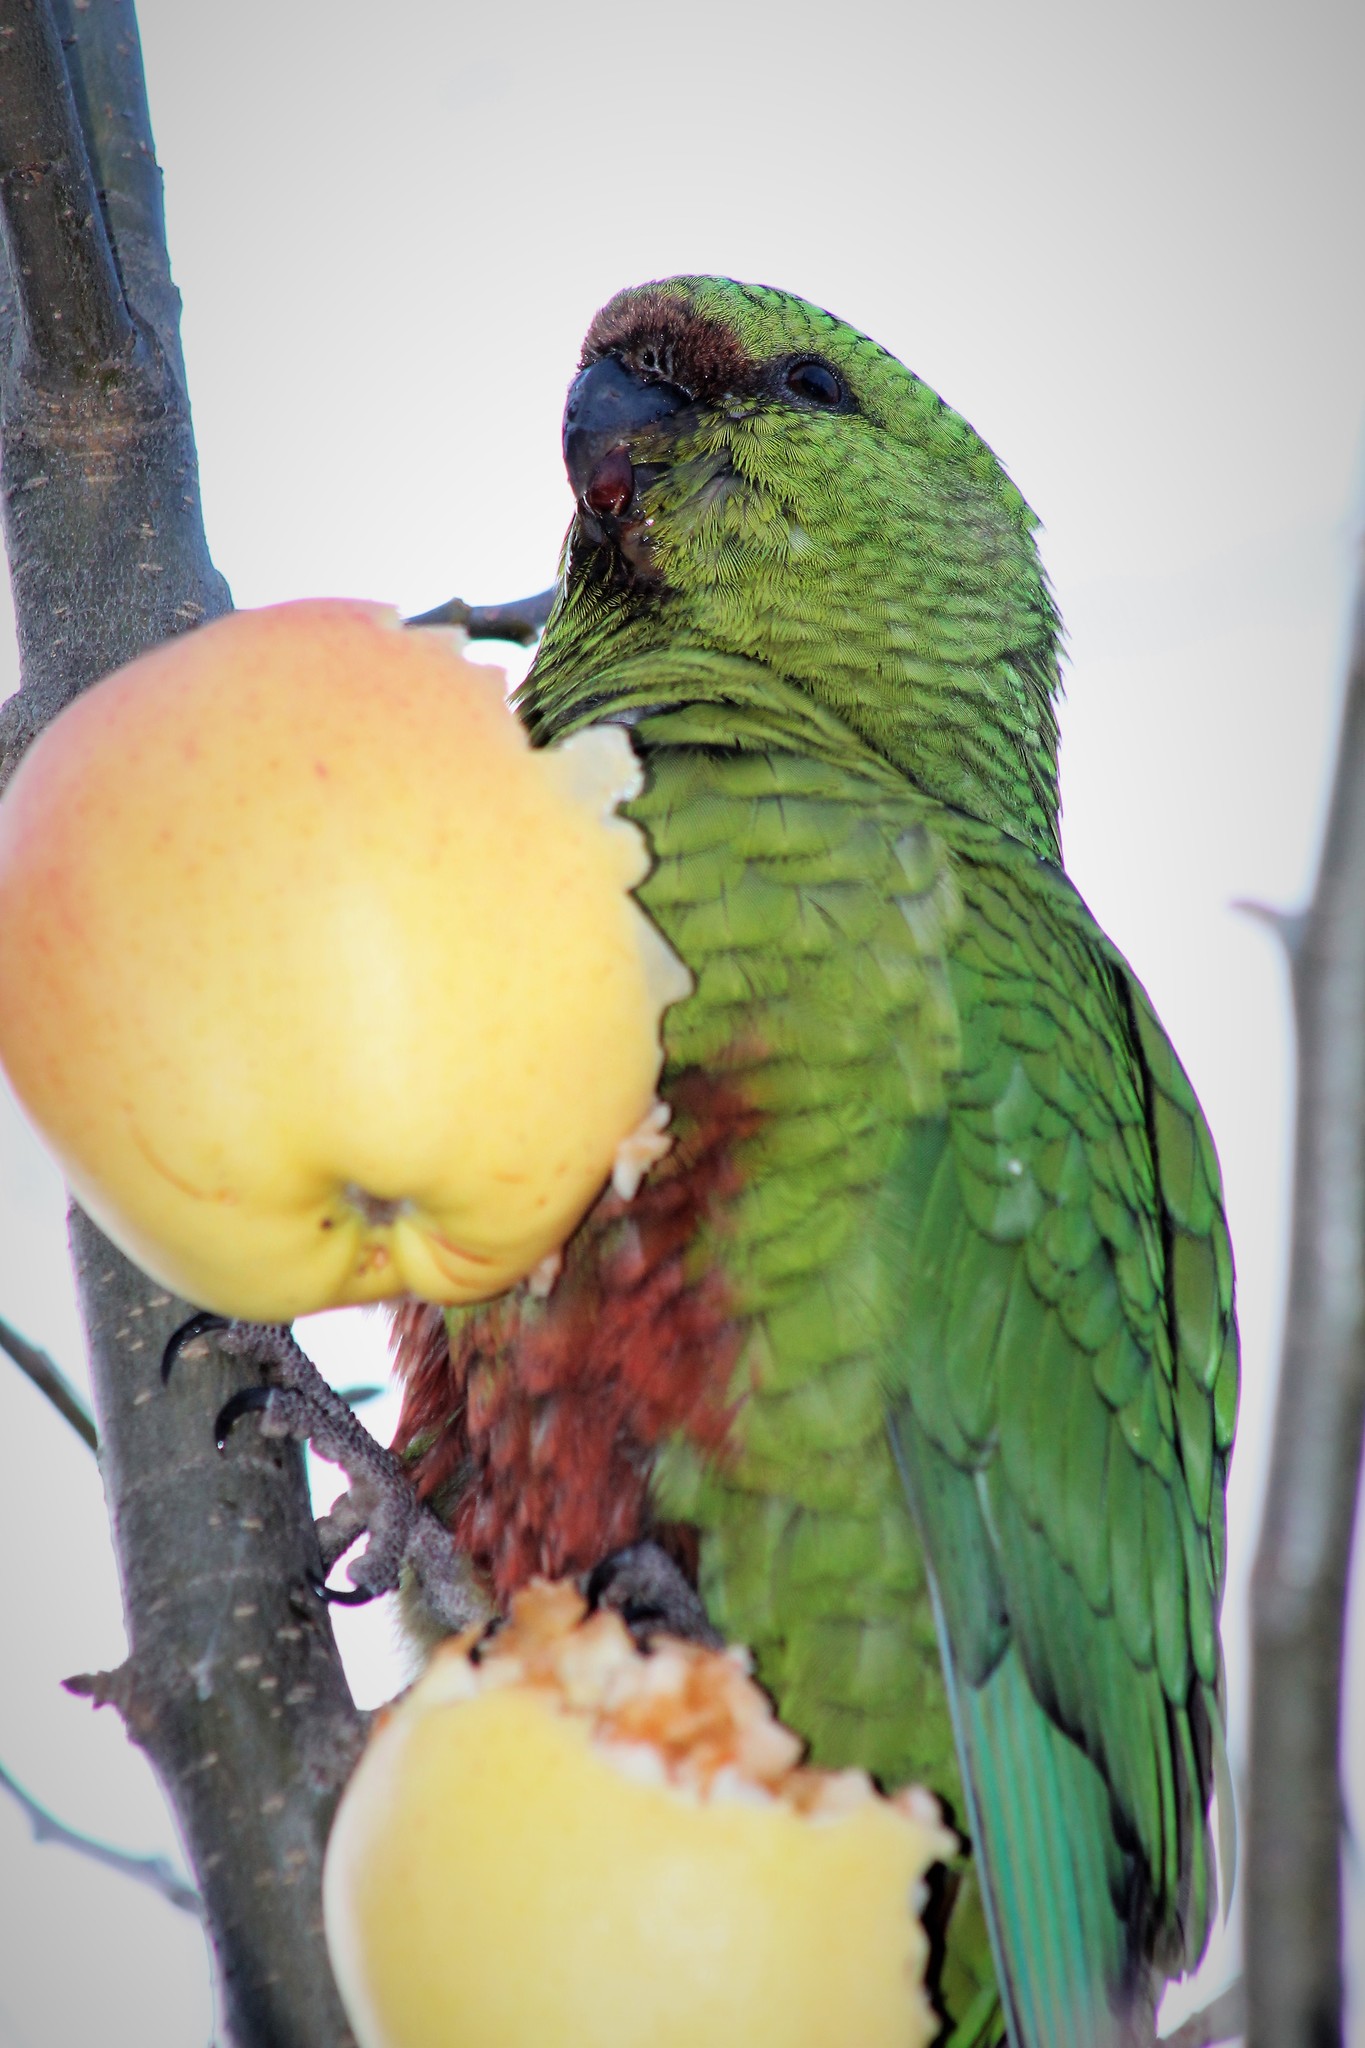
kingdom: Animalia
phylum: Chordata
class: Aves
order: Psittaciformes
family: Psittacidae
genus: Enicognathus
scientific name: Enicognathus ferrugineus
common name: Austral parakeet
